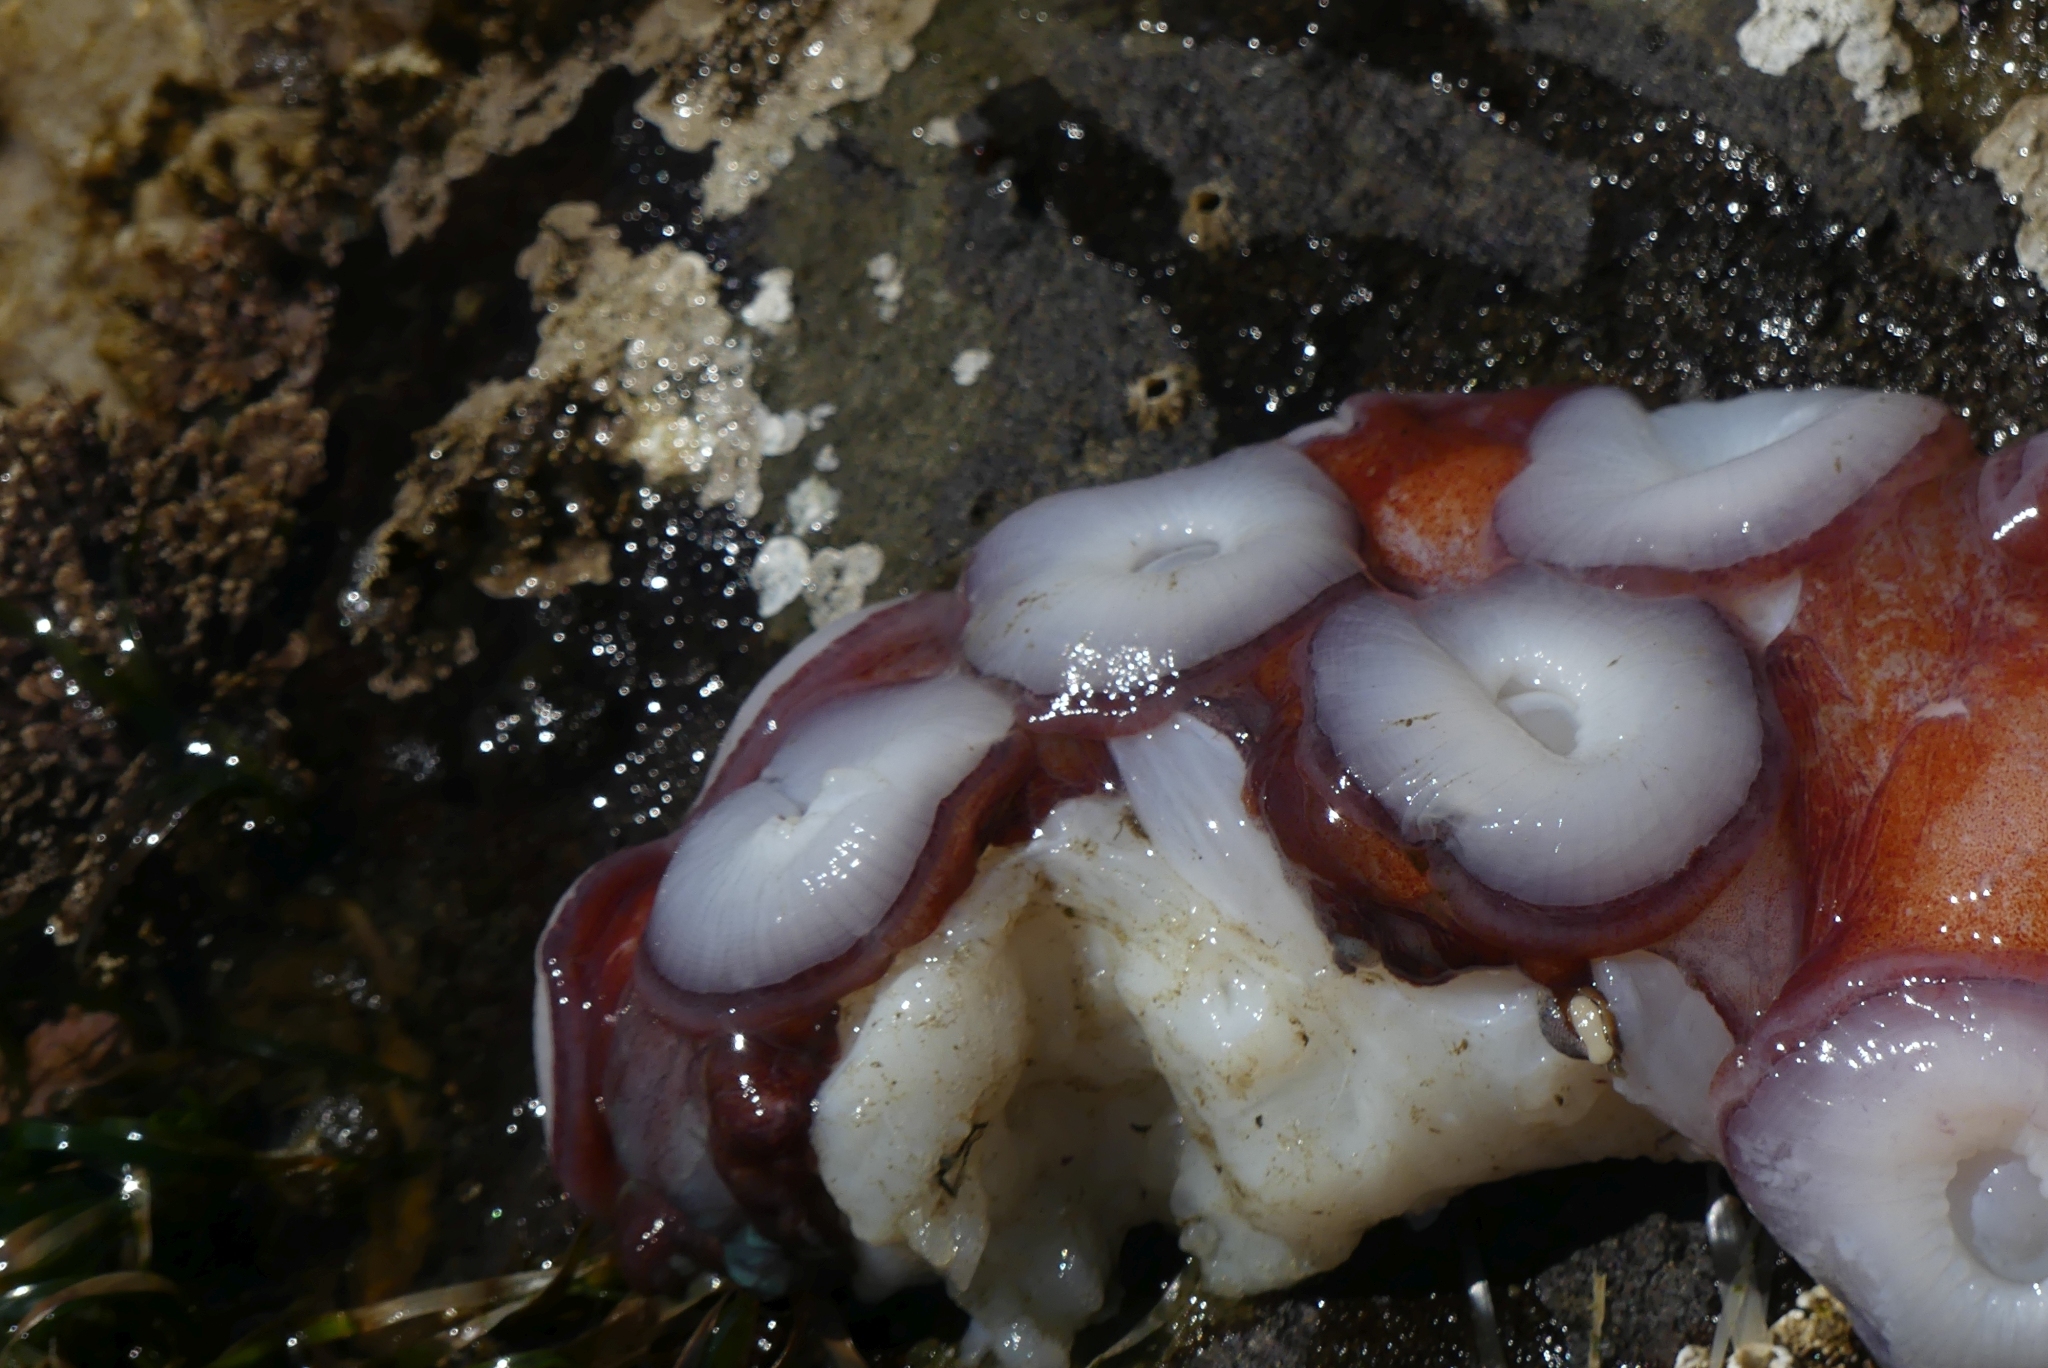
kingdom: Animalia
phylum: Mollusca
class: Cephalopoda
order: Octopoda
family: Enteroctopodidae
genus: Enteroctopus
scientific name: Enteroctopus dofleini
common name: Giant north pacific octopus
